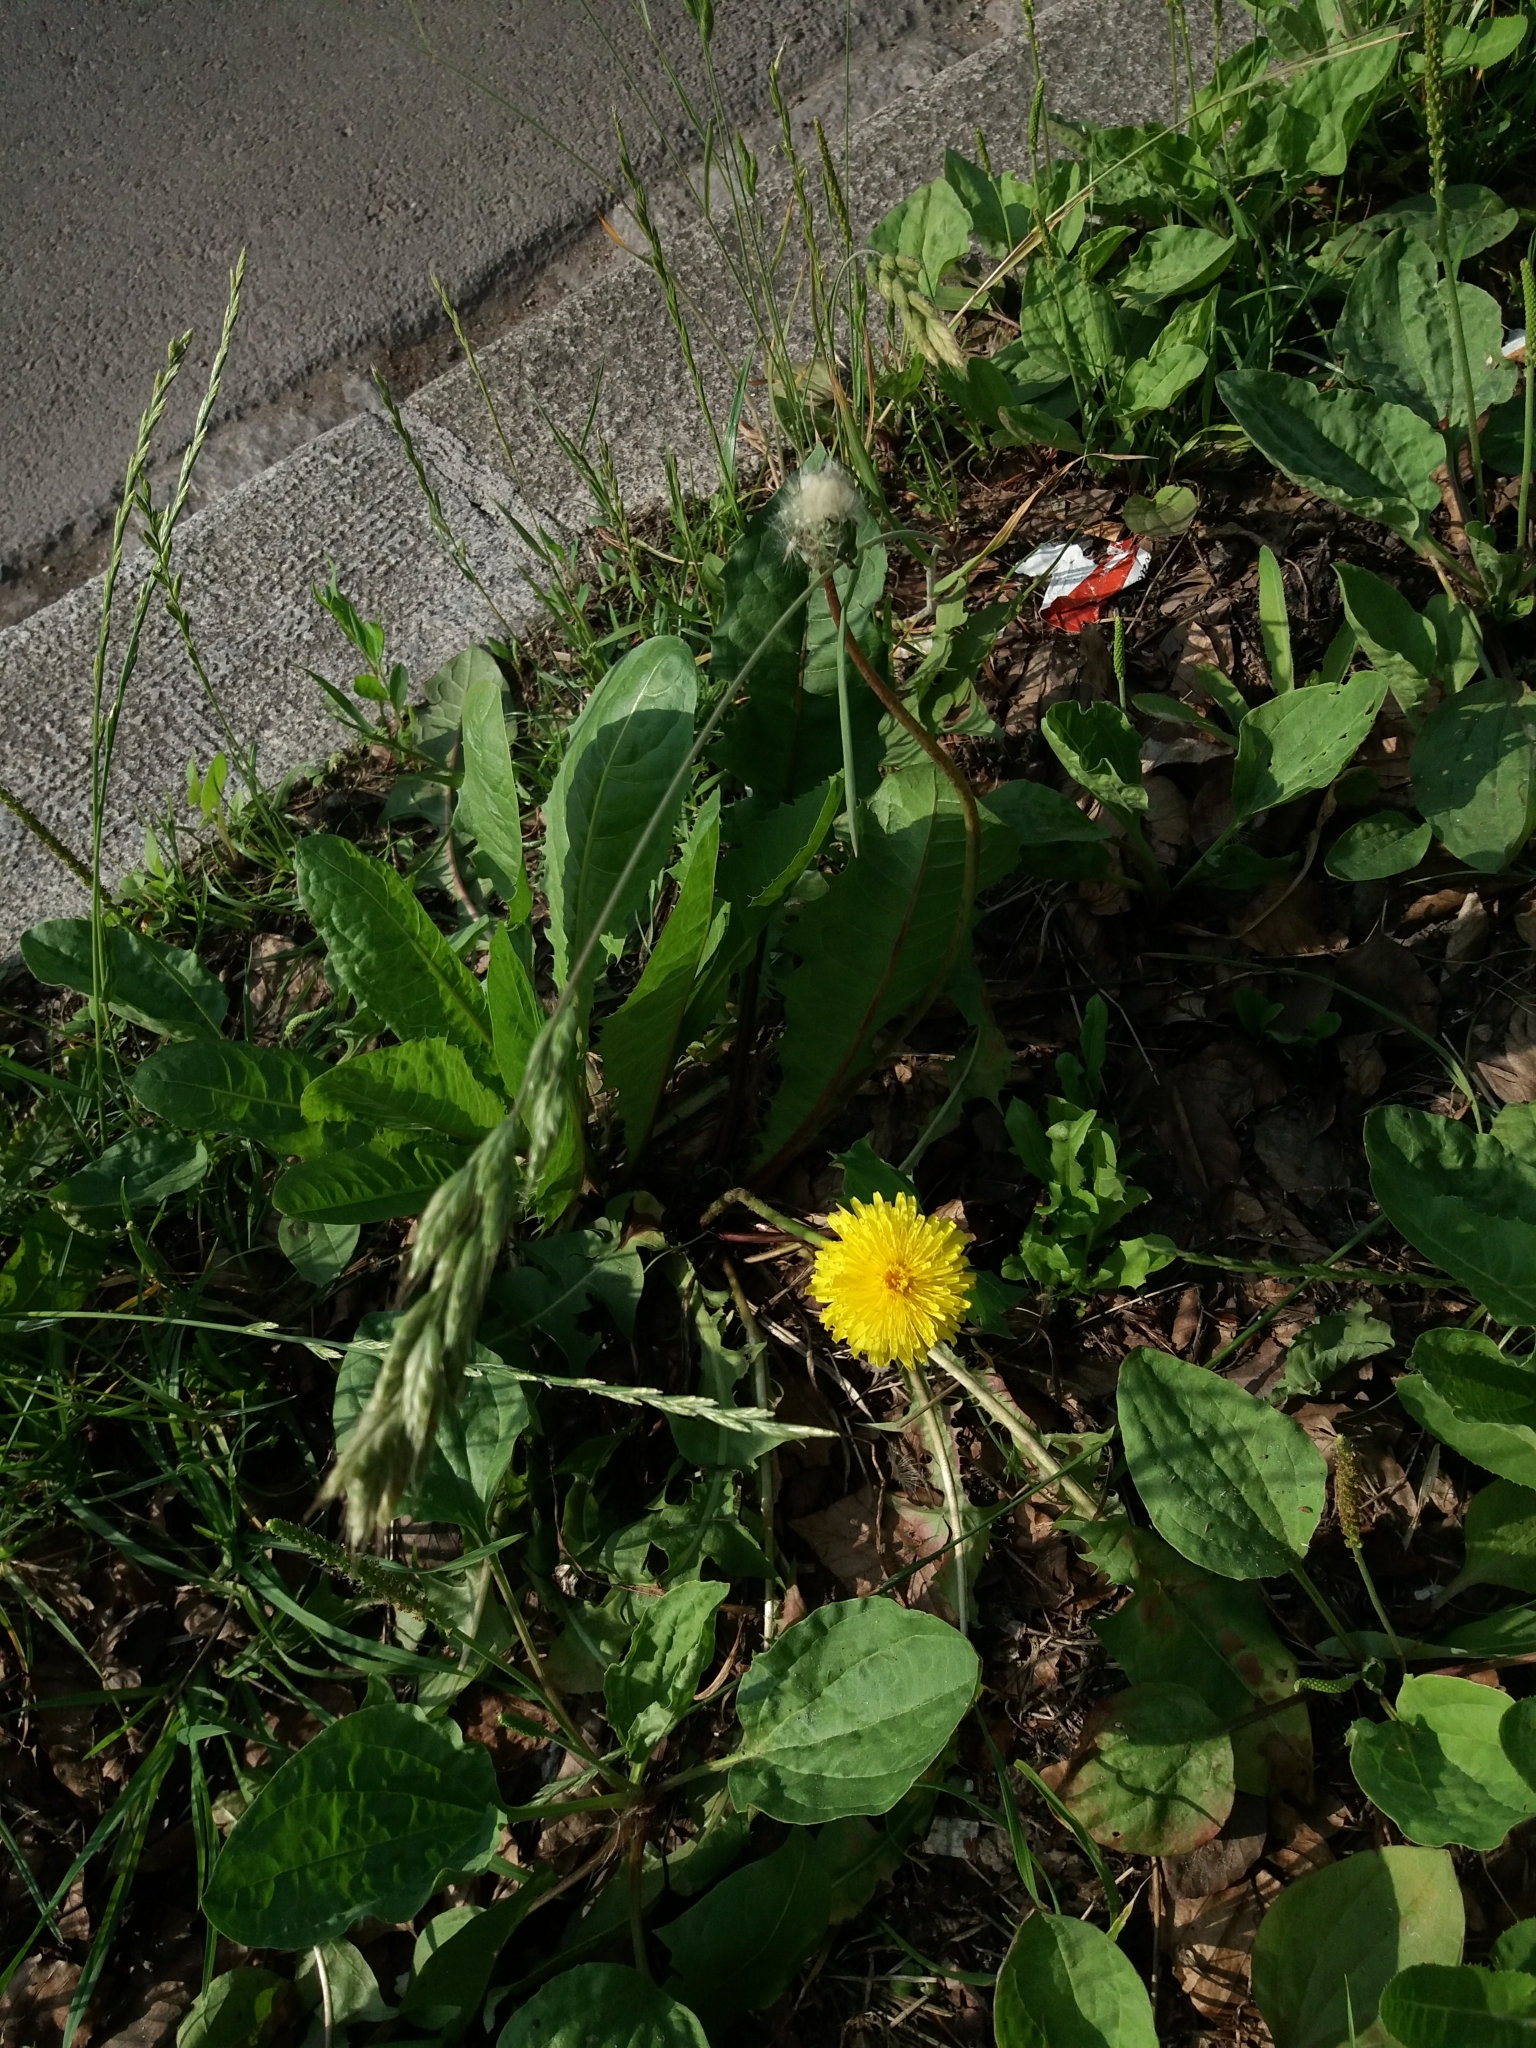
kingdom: Plantae
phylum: Tracheophyta
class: Magnoliopsida
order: Asterales
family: Asteraceae
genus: Taraxacum
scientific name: Taraxacum officinale
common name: Common dandelion
